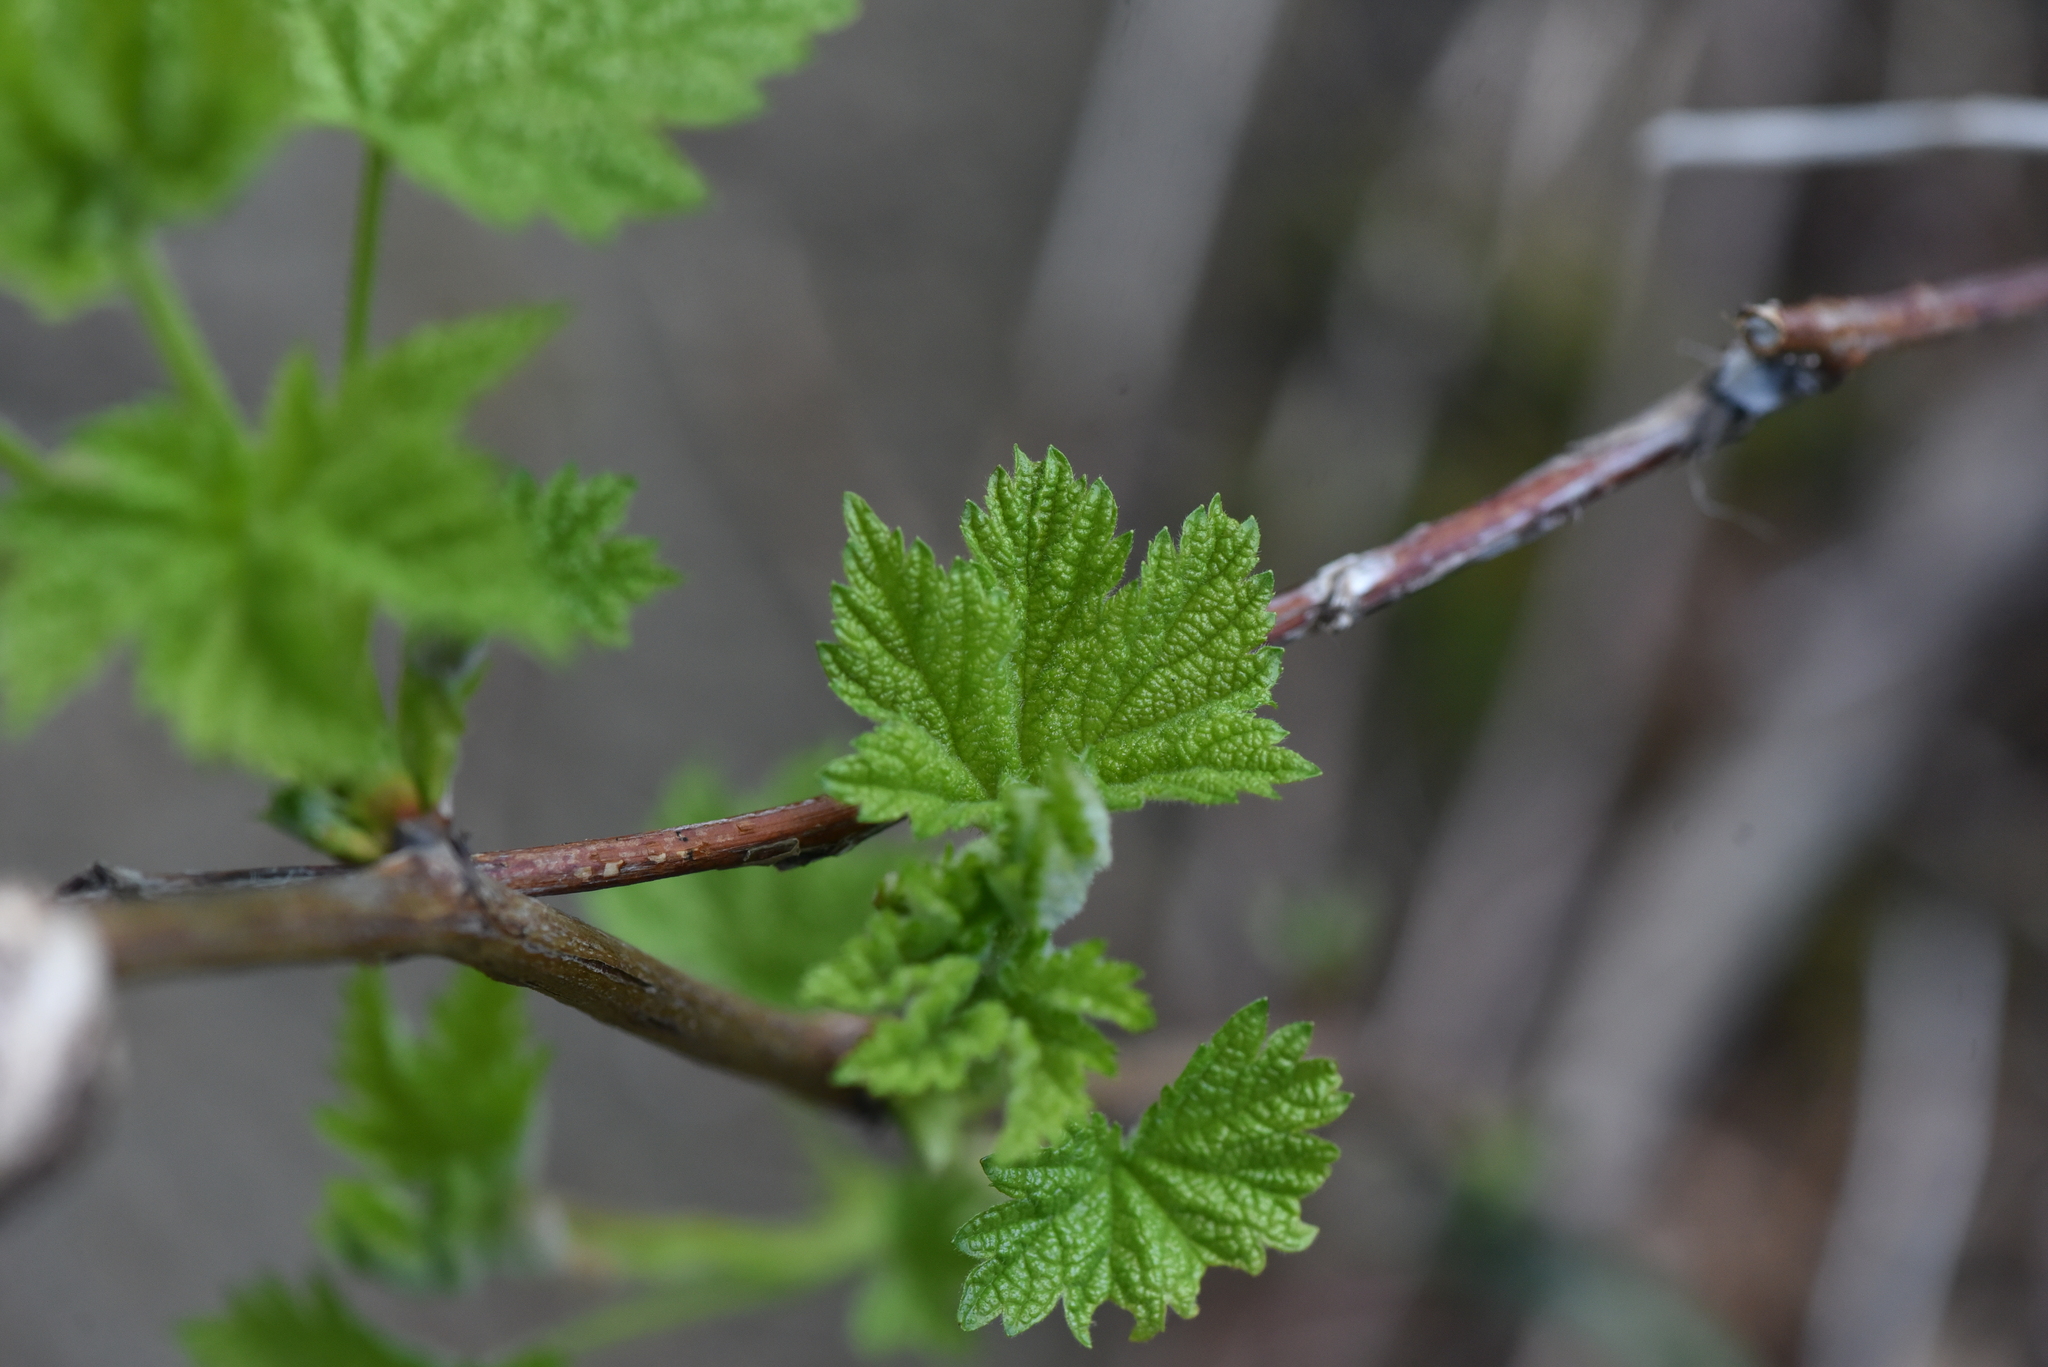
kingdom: Animalia
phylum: Arthropoda
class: Insecta
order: Hymenoptera
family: Cynipidae
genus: Diastrophus
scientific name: Diastrophus
